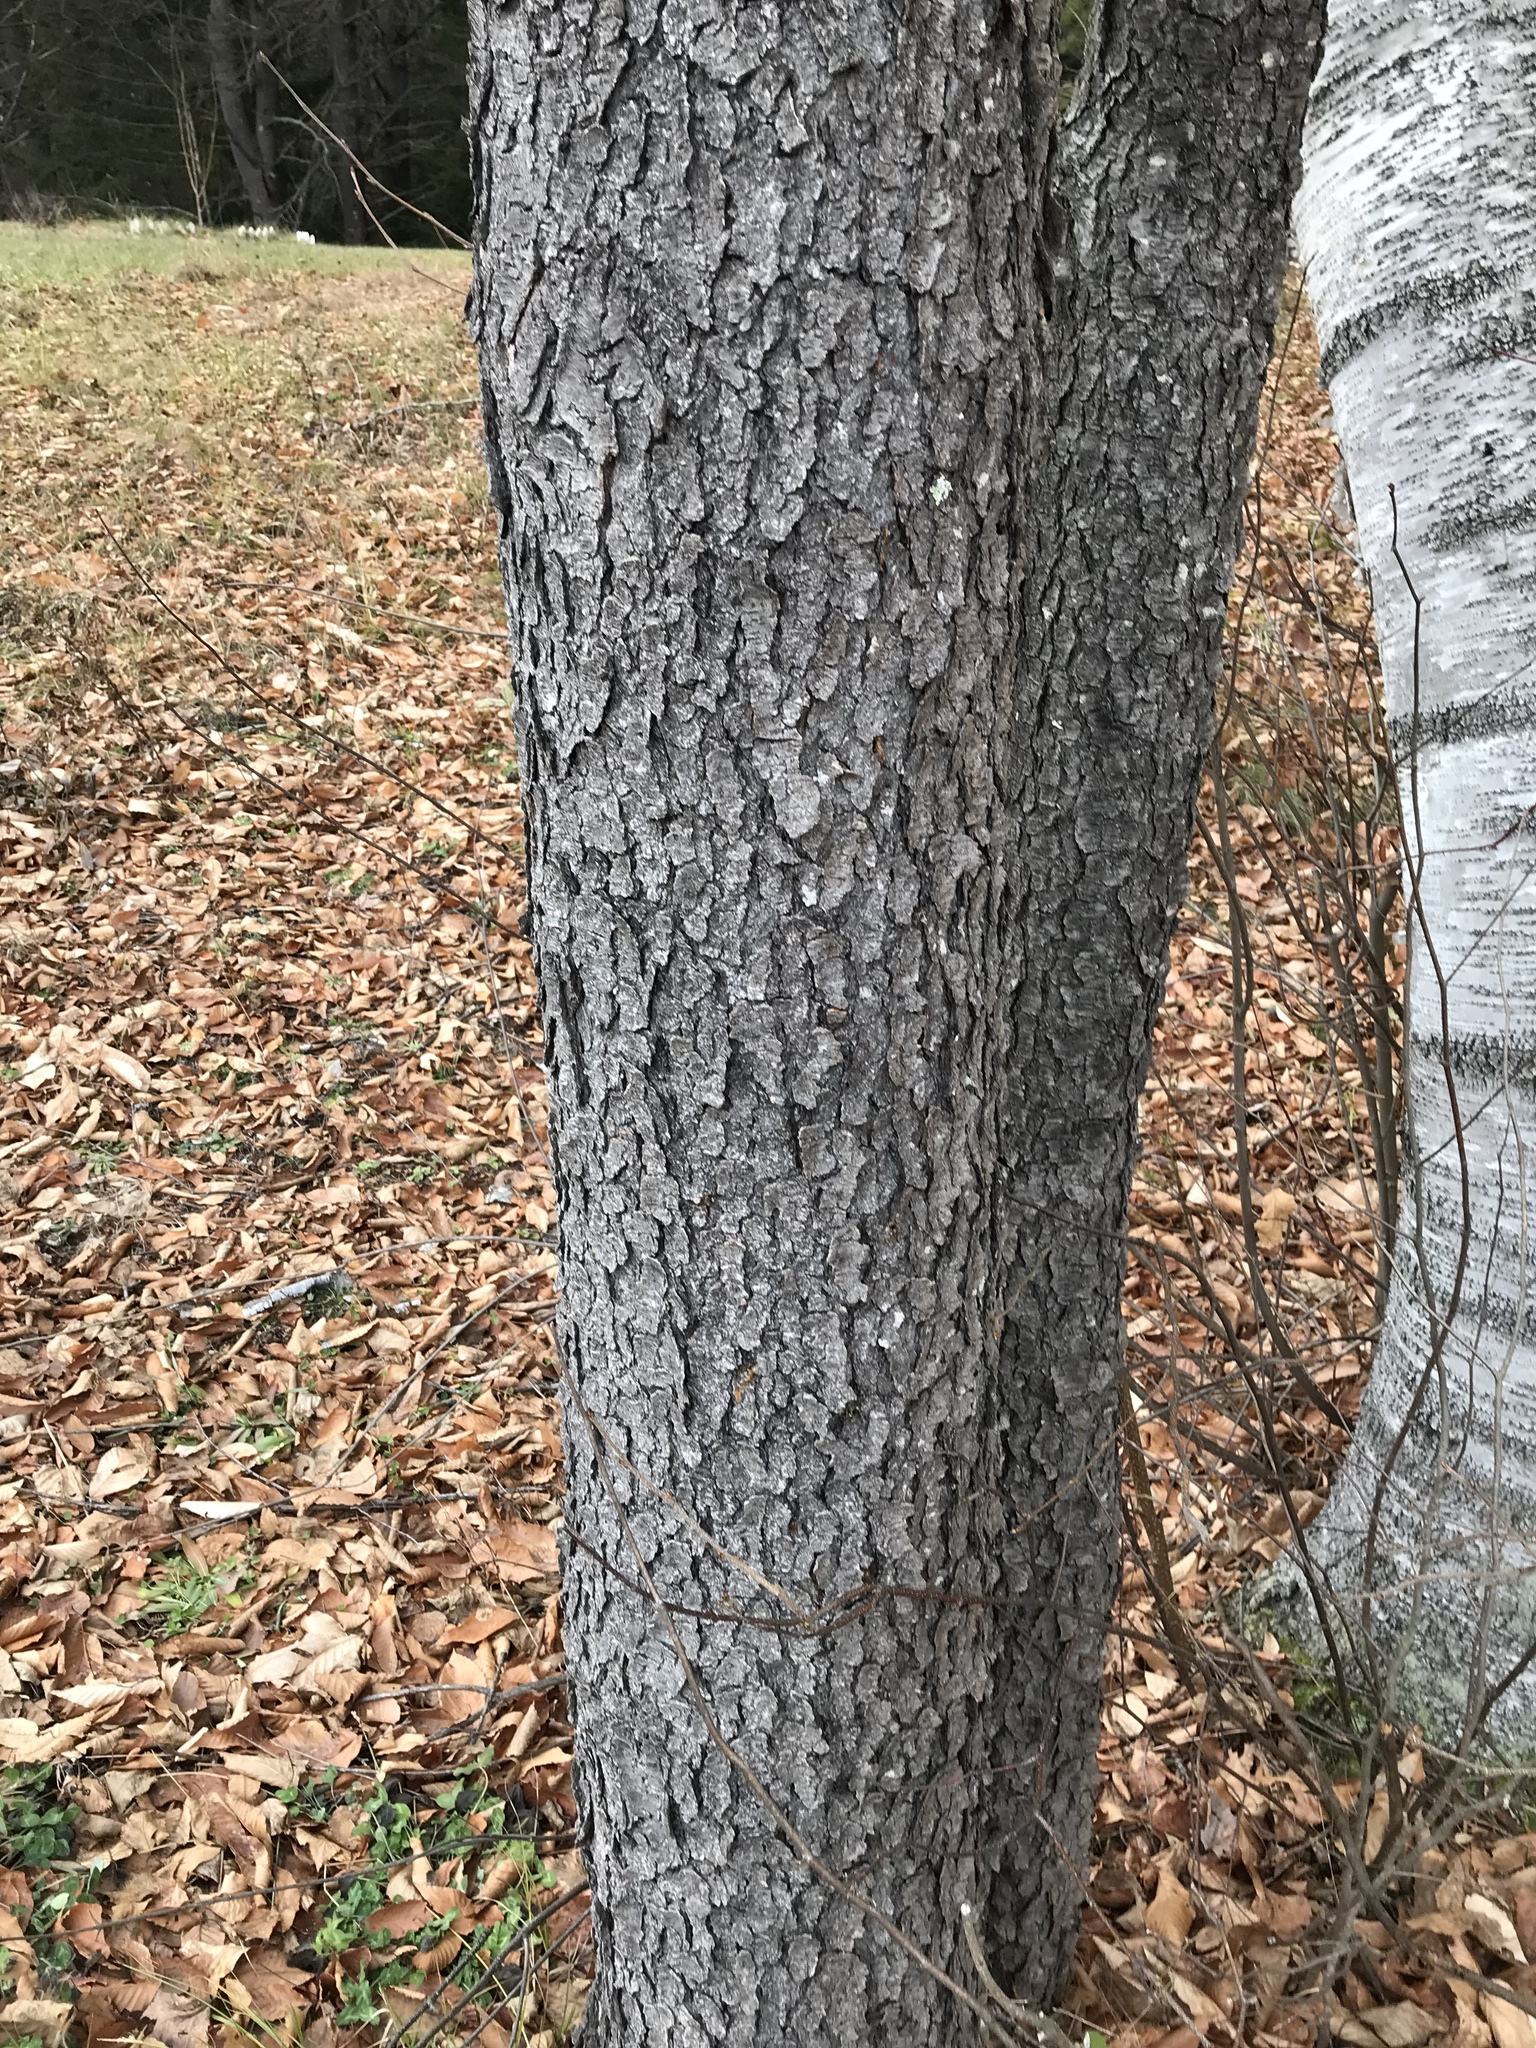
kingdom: Plantae
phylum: Tracheophyta
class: Magnoliopsida
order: Rosales
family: Rosaceae
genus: Prunus
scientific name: Prunus serotina
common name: Black cherry
